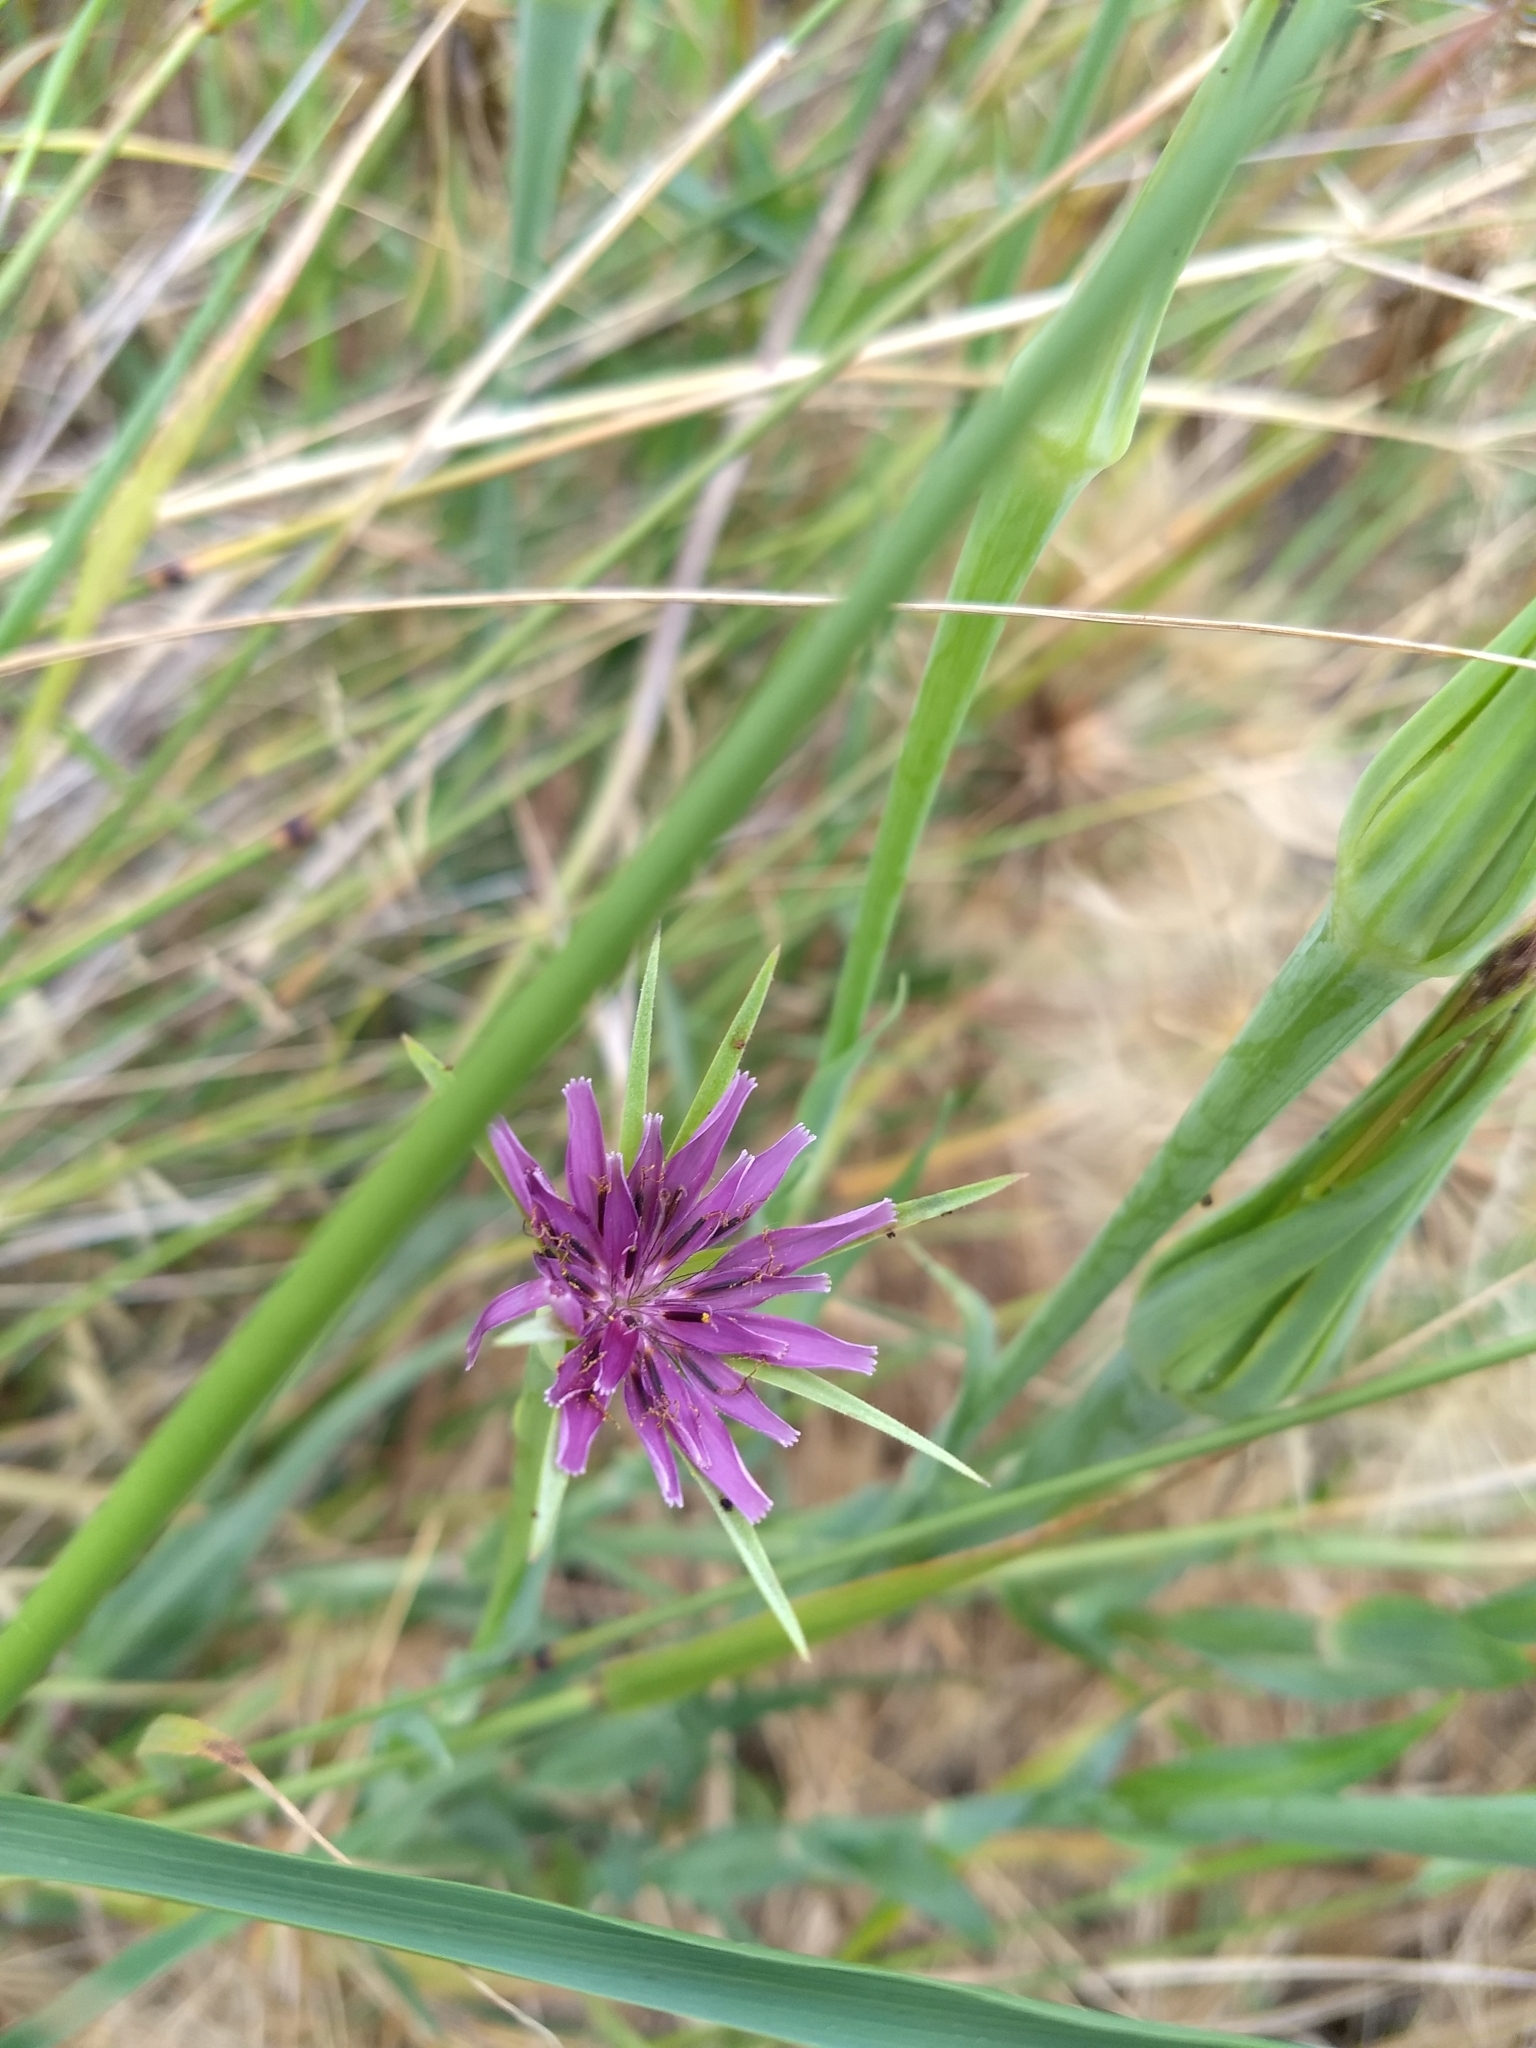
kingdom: Plantae
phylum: Tracheophyta
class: Magnoliopsida
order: Asterales
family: Asteraceae
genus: Tragopogon
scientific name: Tragopogon porrifolius
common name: Salsify
